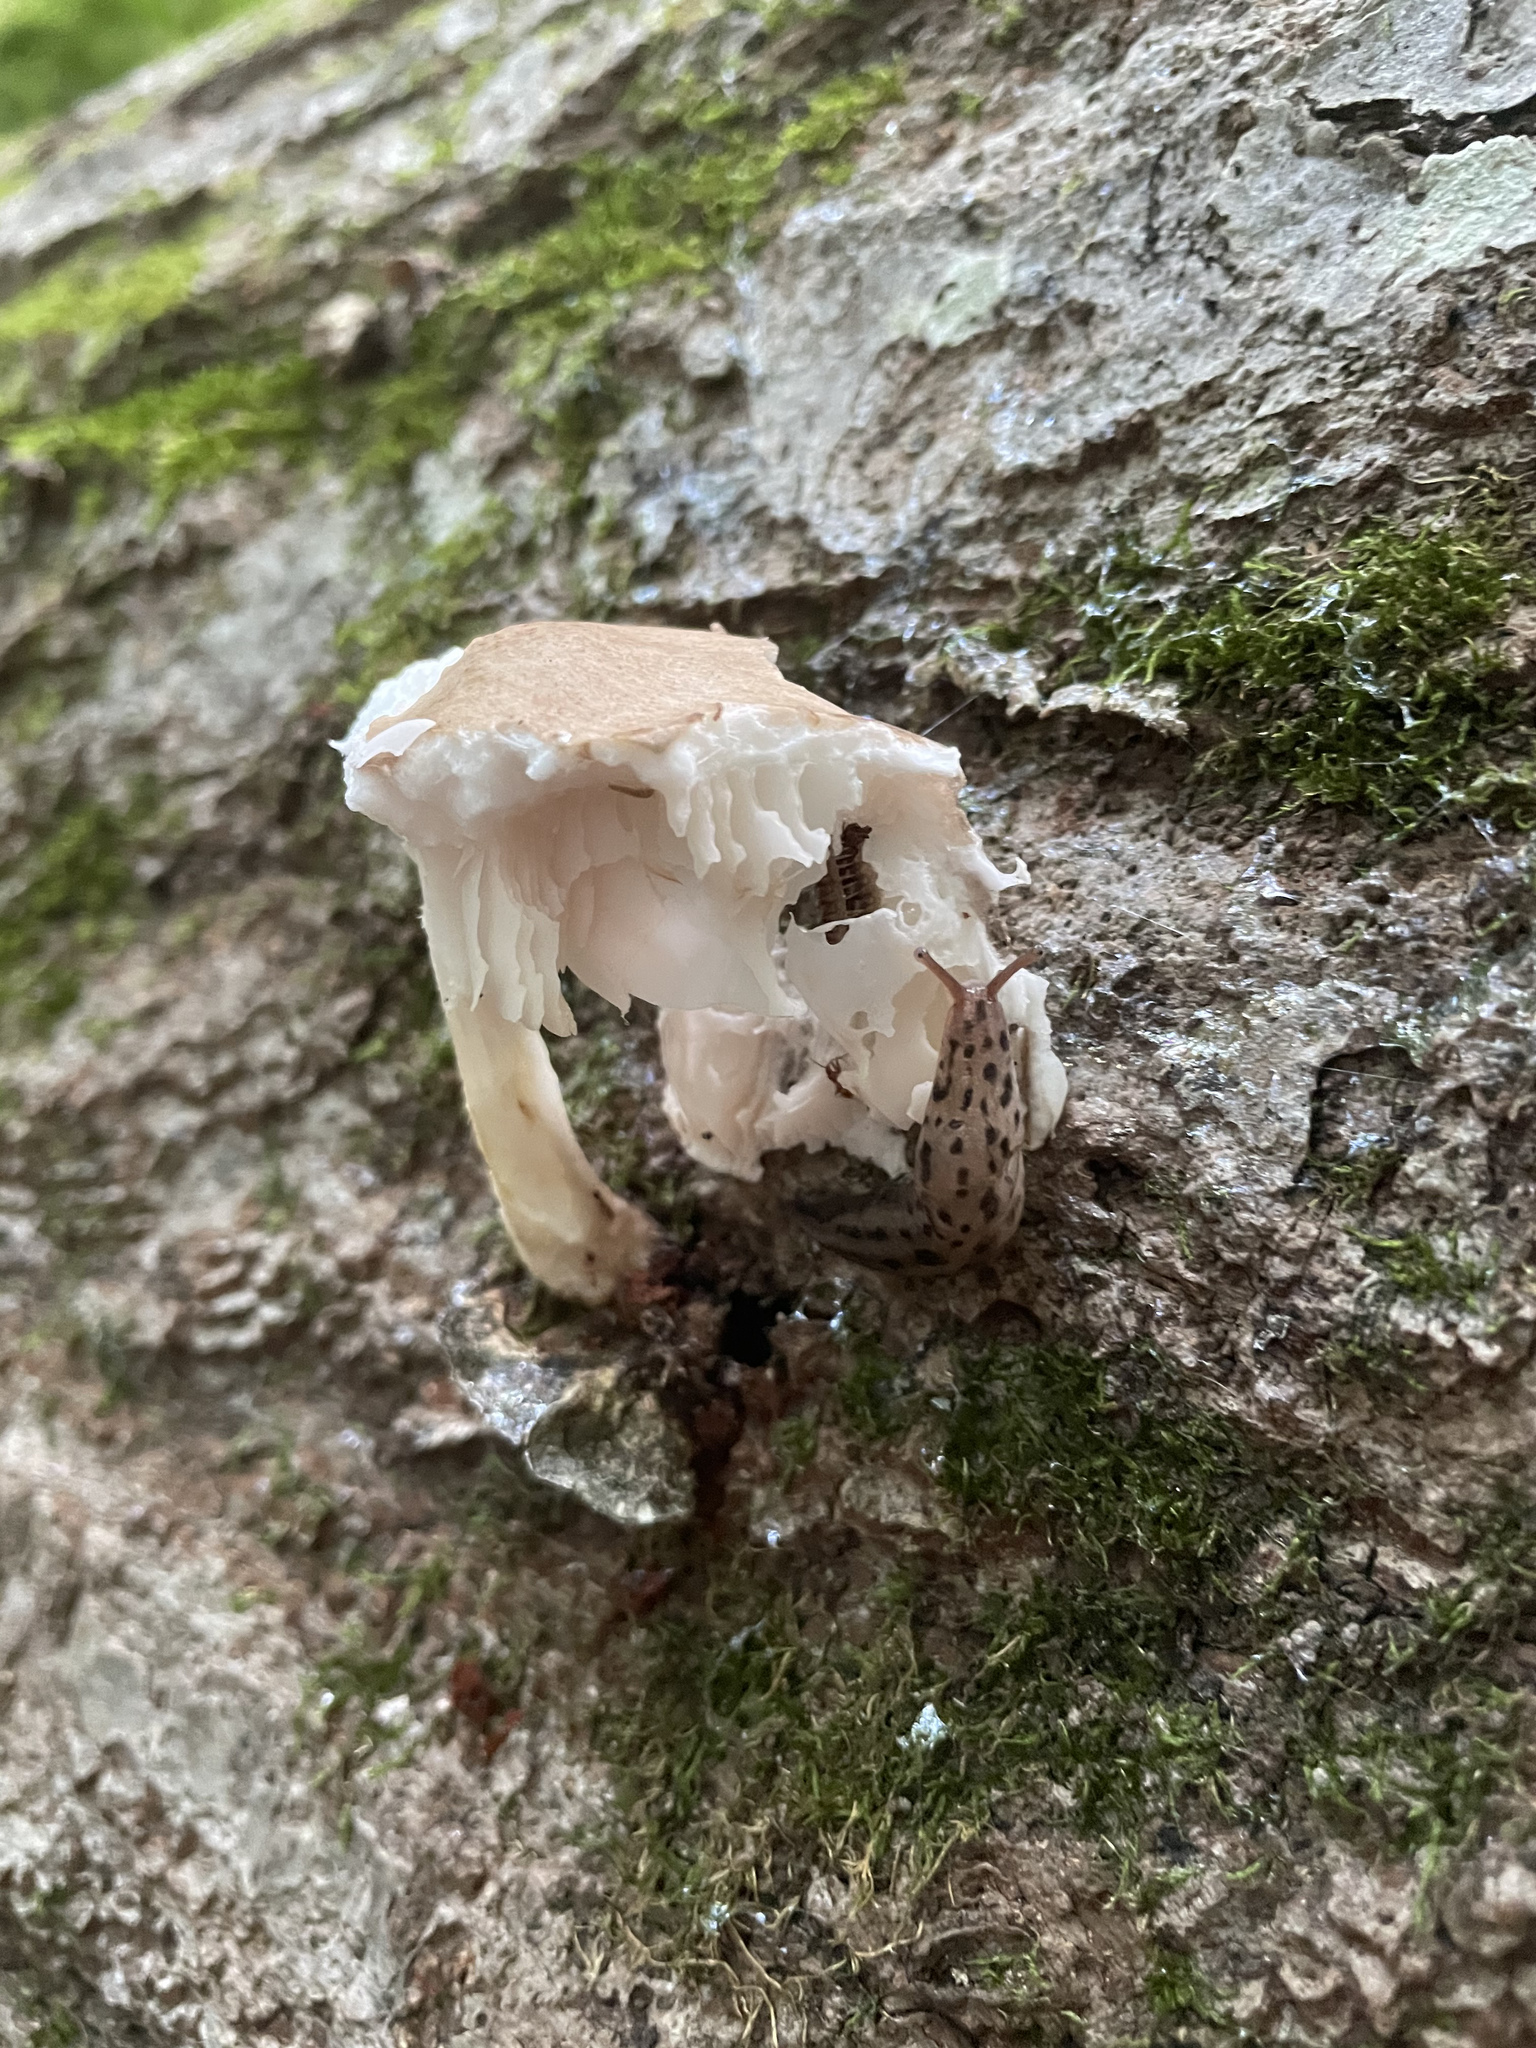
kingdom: Animalia
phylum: Mollusca
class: Gastropoda
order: Stylommatophora
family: Limacidae
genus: Limax
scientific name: Limax maximus
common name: Great grey slug
